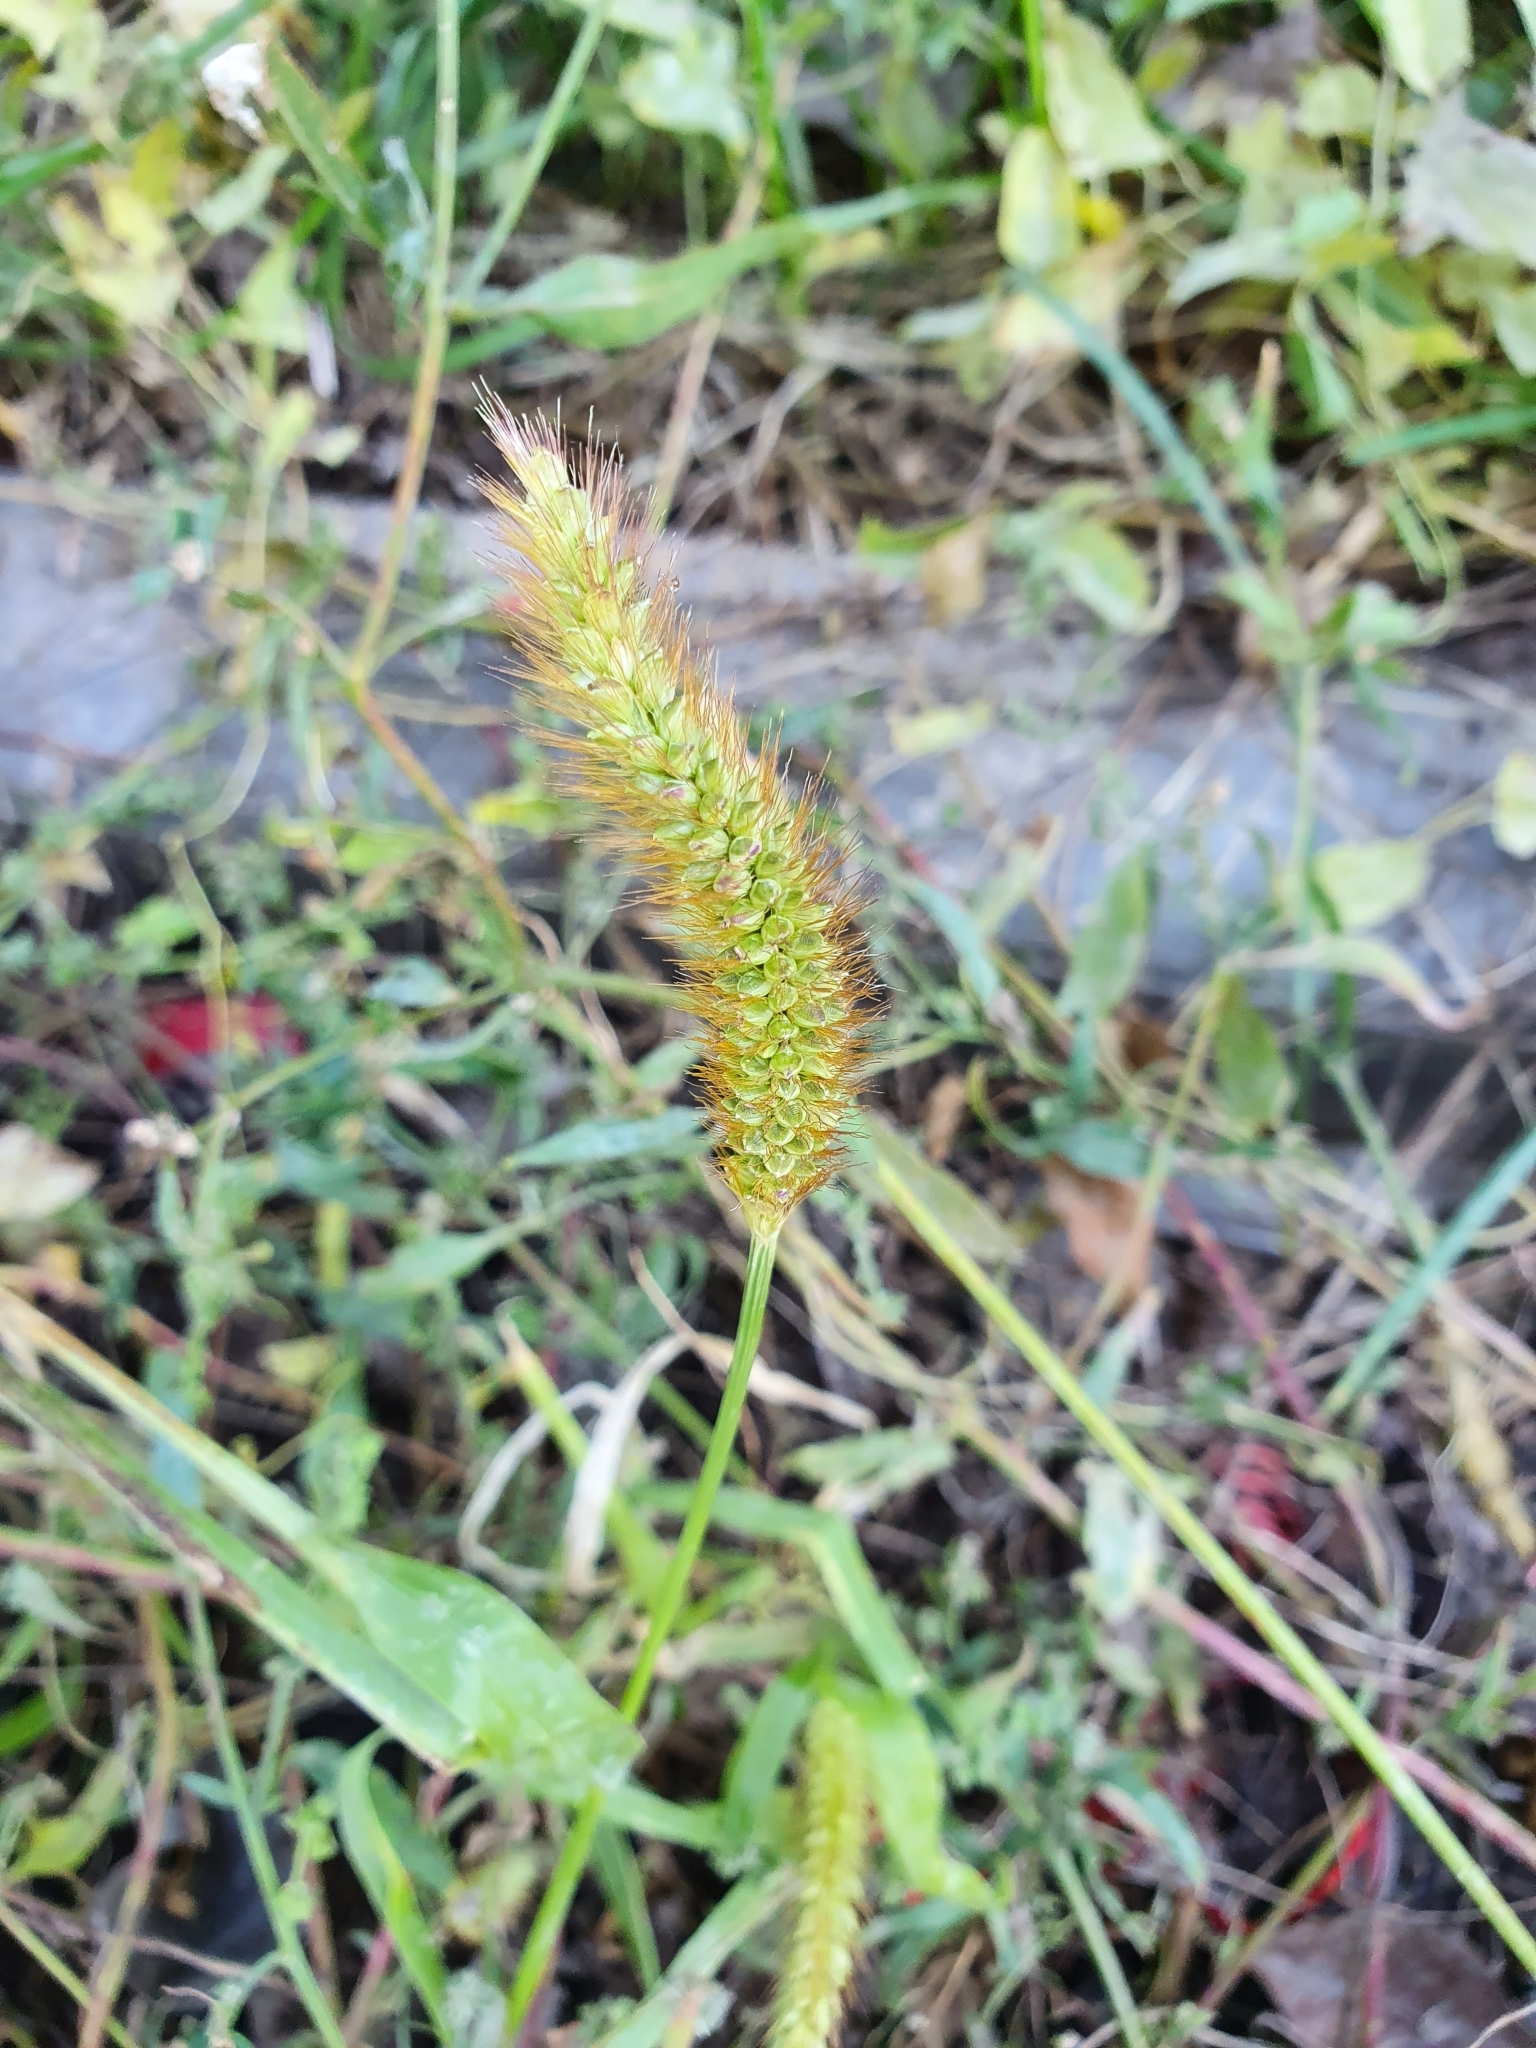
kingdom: Plantae
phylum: Tracheophyta
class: Liliopsida
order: Poales
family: Poaceae
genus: Setaria
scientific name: Setaria pumila
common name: Yellow bristle-grass
